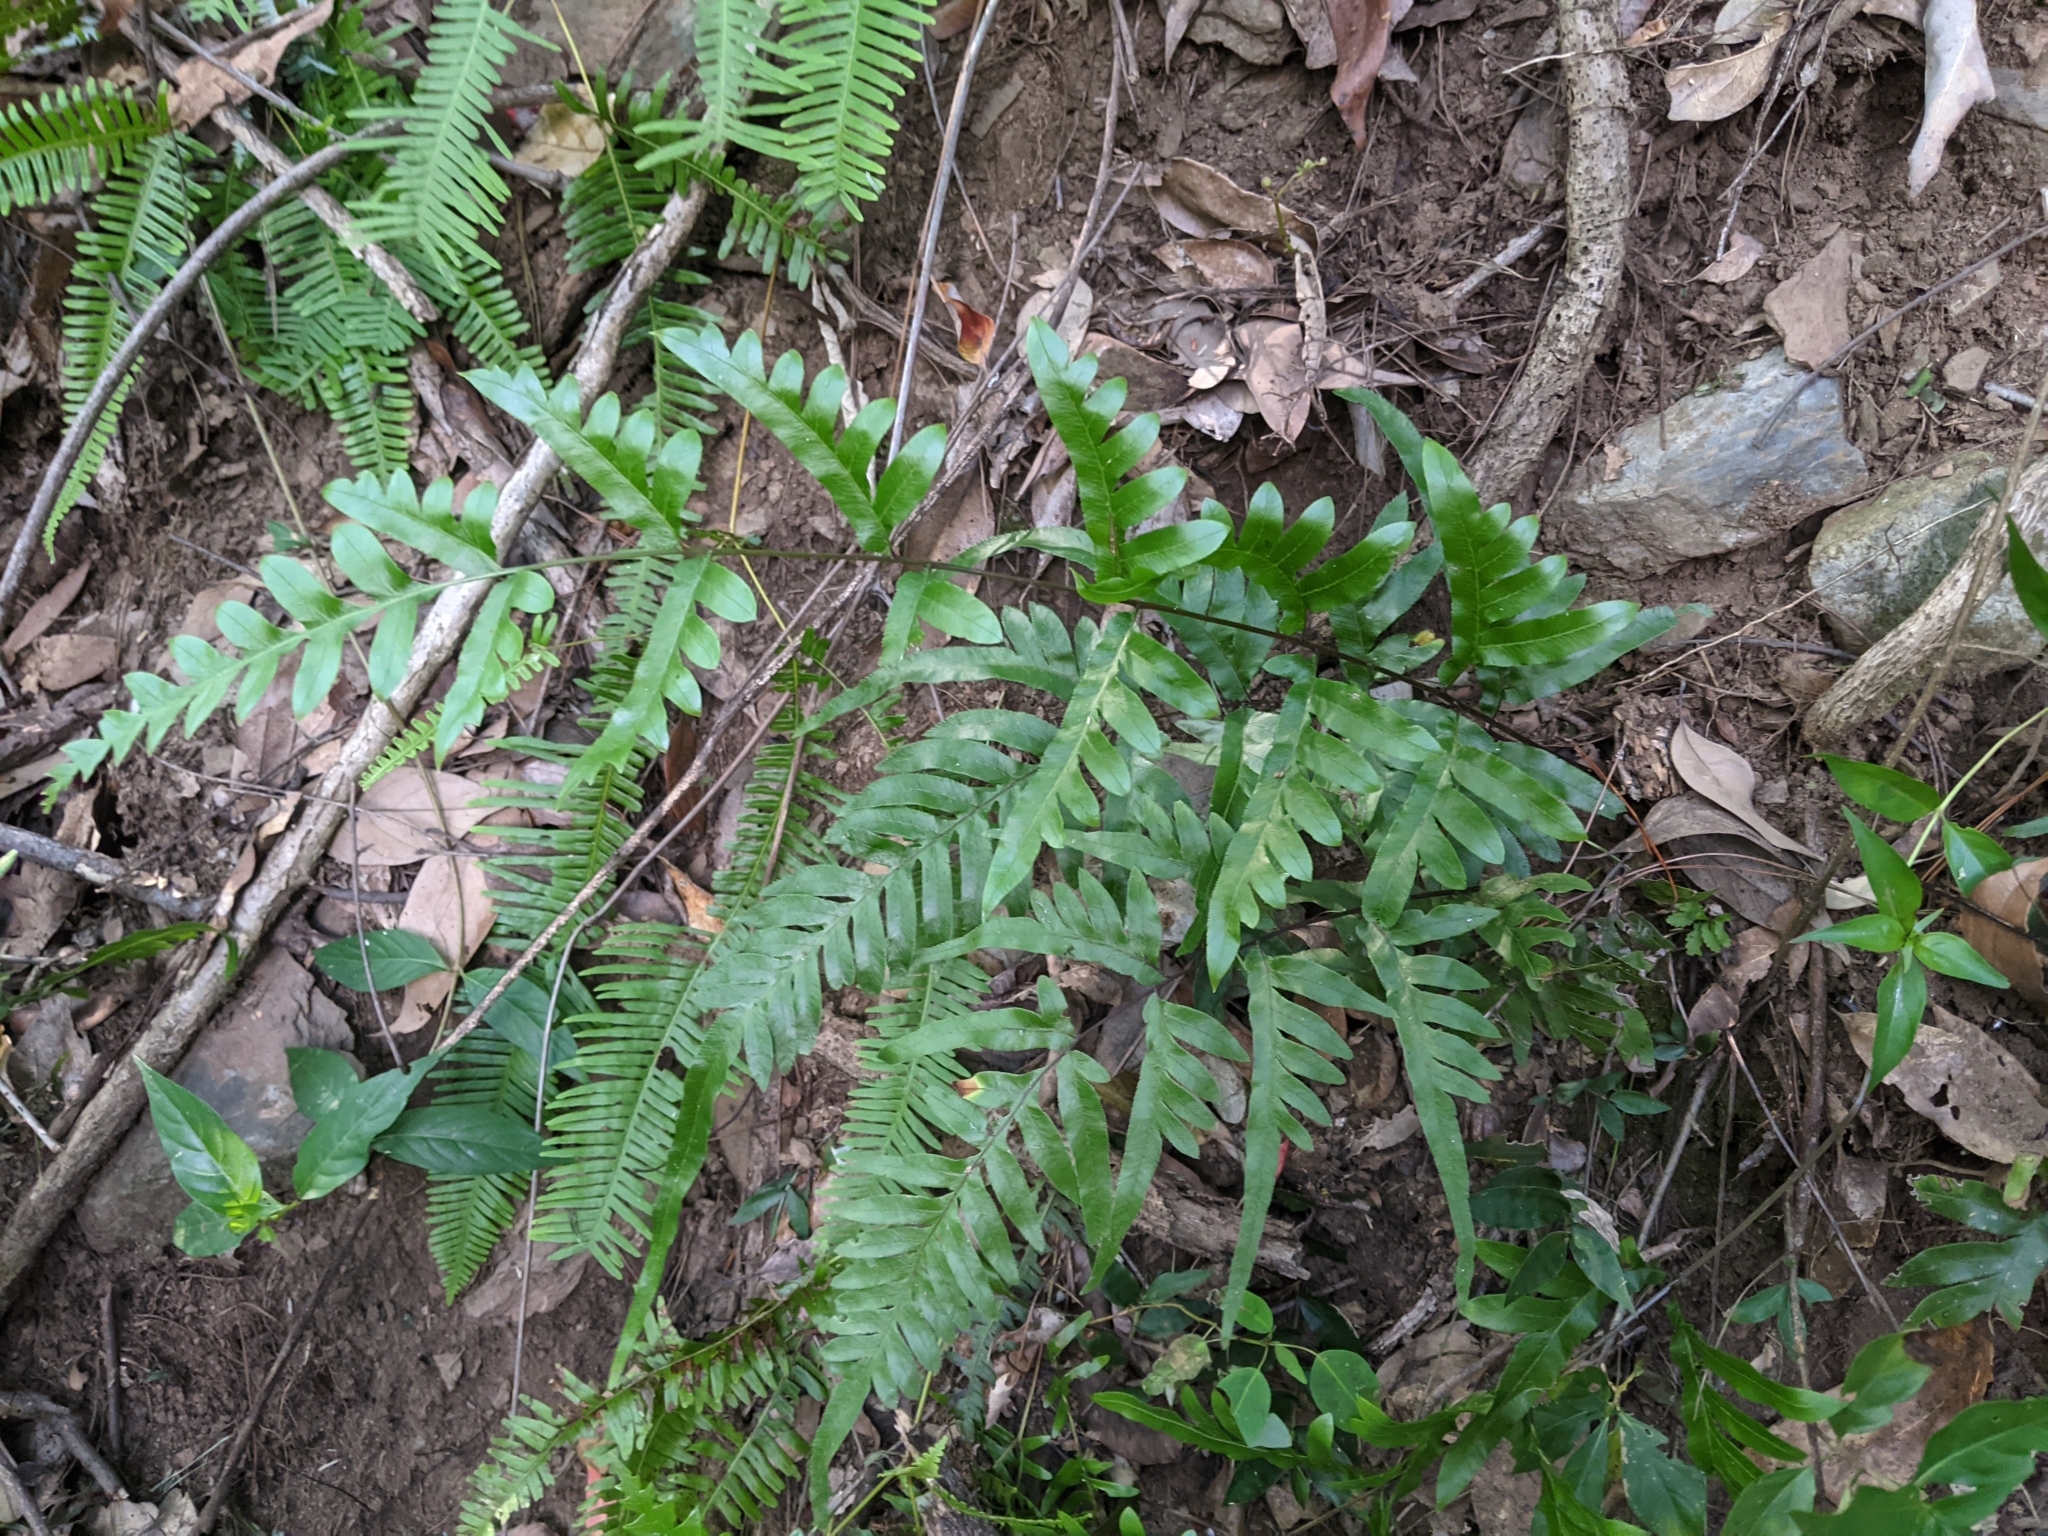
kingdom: Plantae
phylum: Tracheophyta
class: Polypodiopsida
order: Polypodiales
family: Pteridaceae
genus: Pteris
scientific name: Pteris semipinnata
